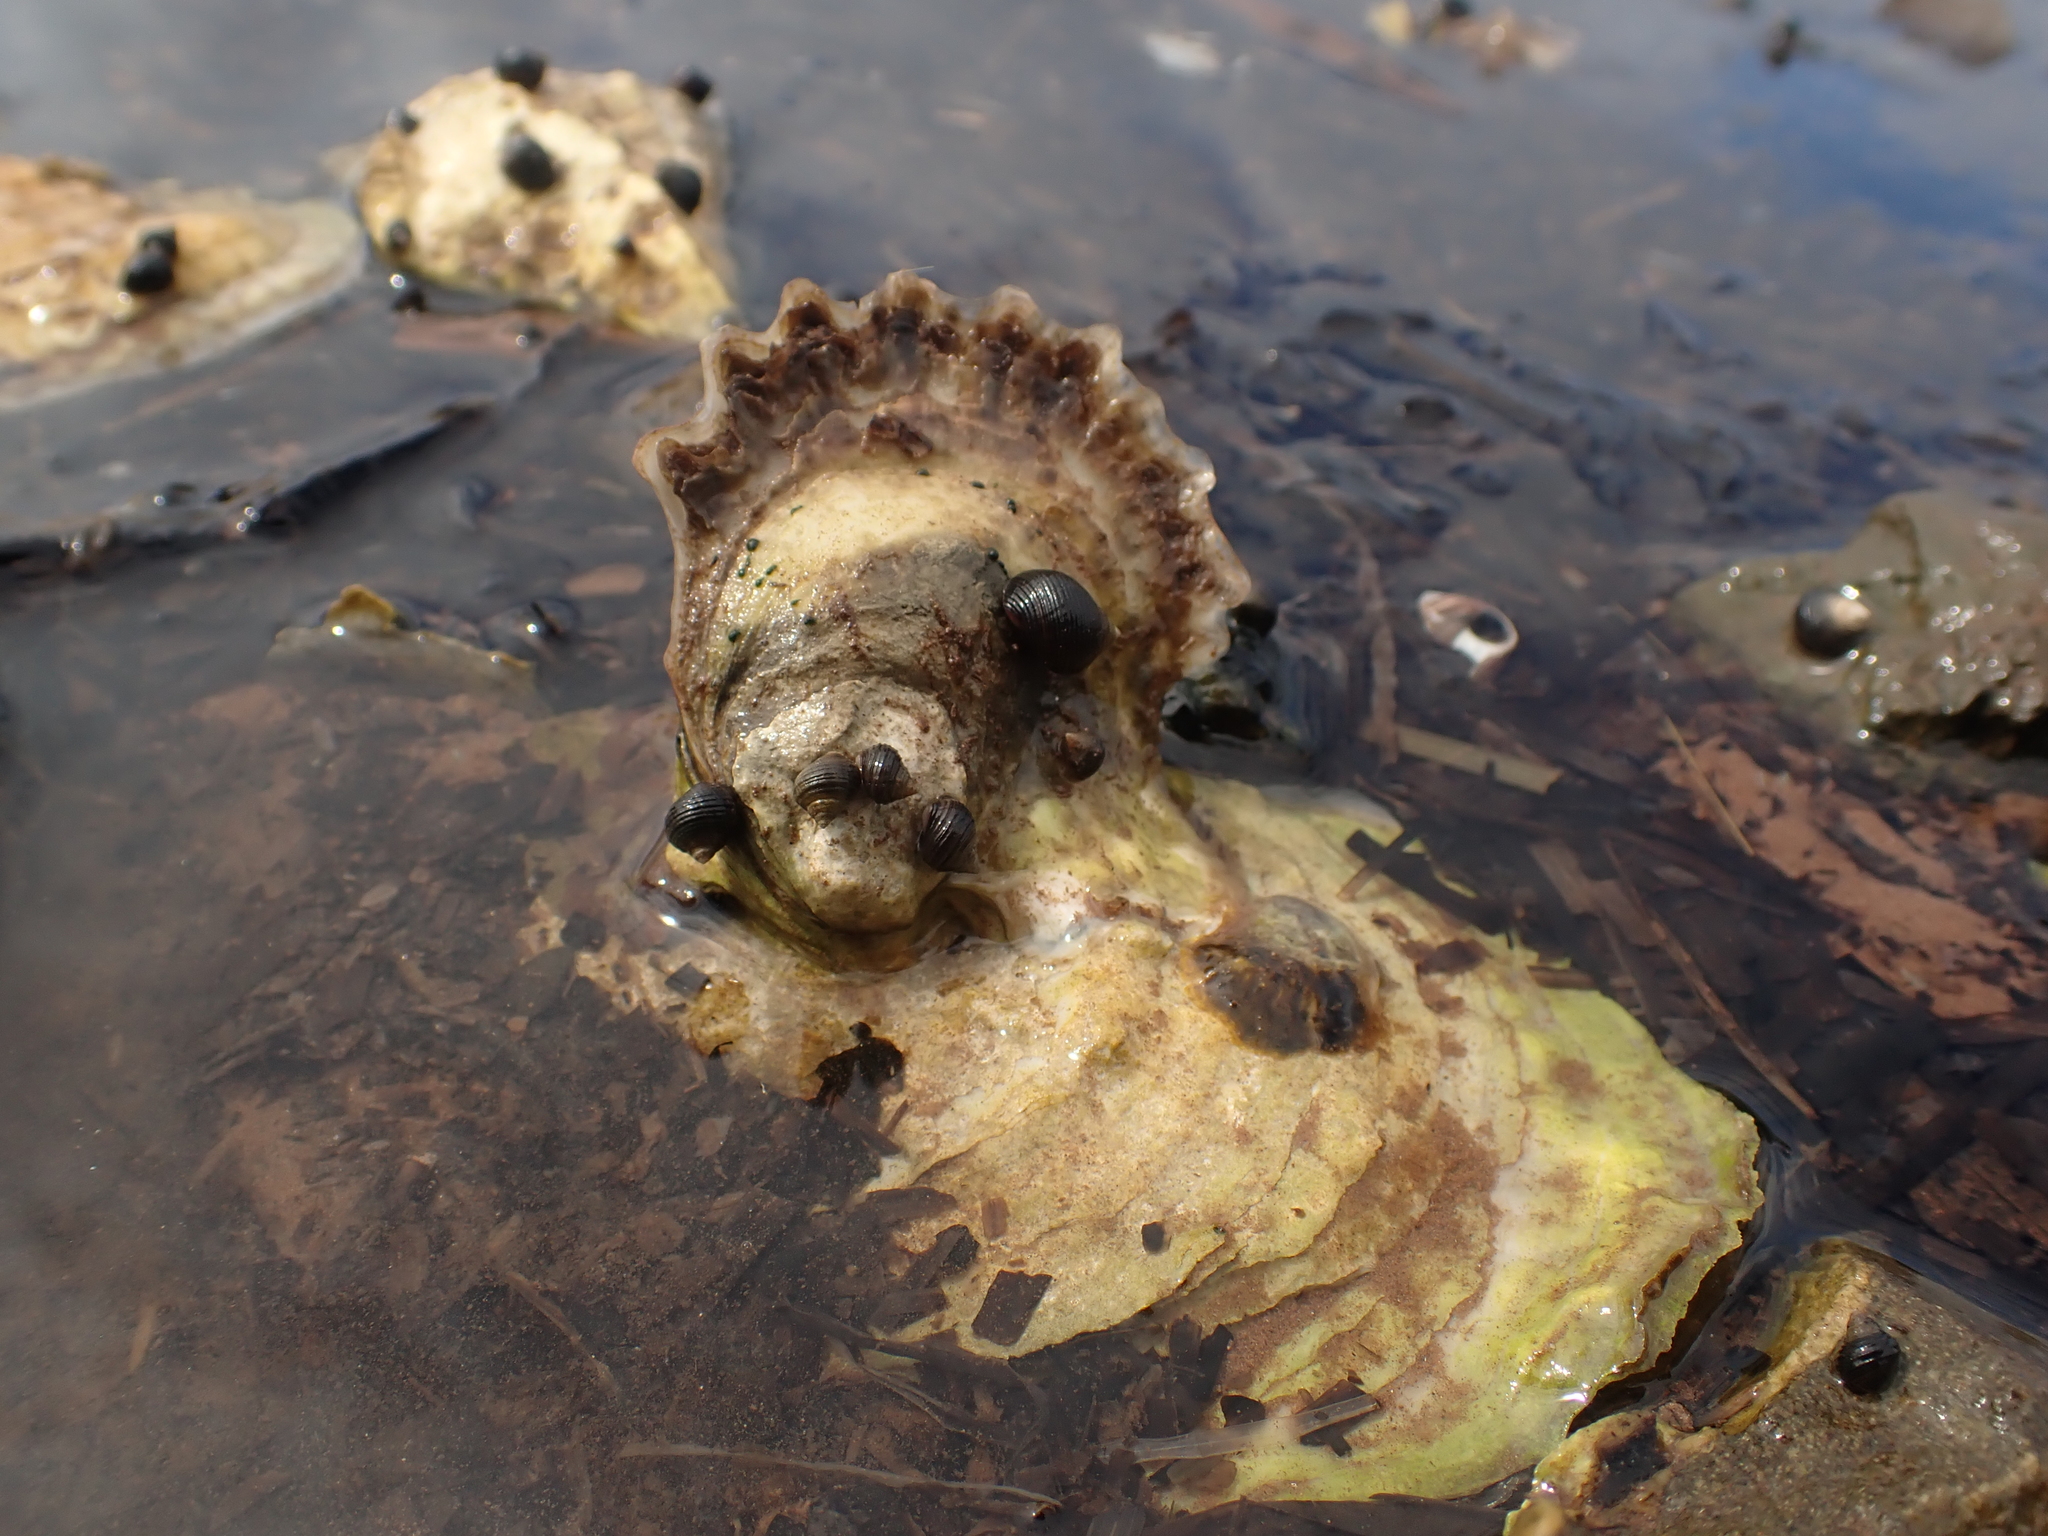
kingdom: Animalia
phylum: Mollusca
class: Bivalvia
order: Ostreida
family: Ostreidae
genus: Crassostrea
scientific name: Crassostrea virginica
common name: American oyster
